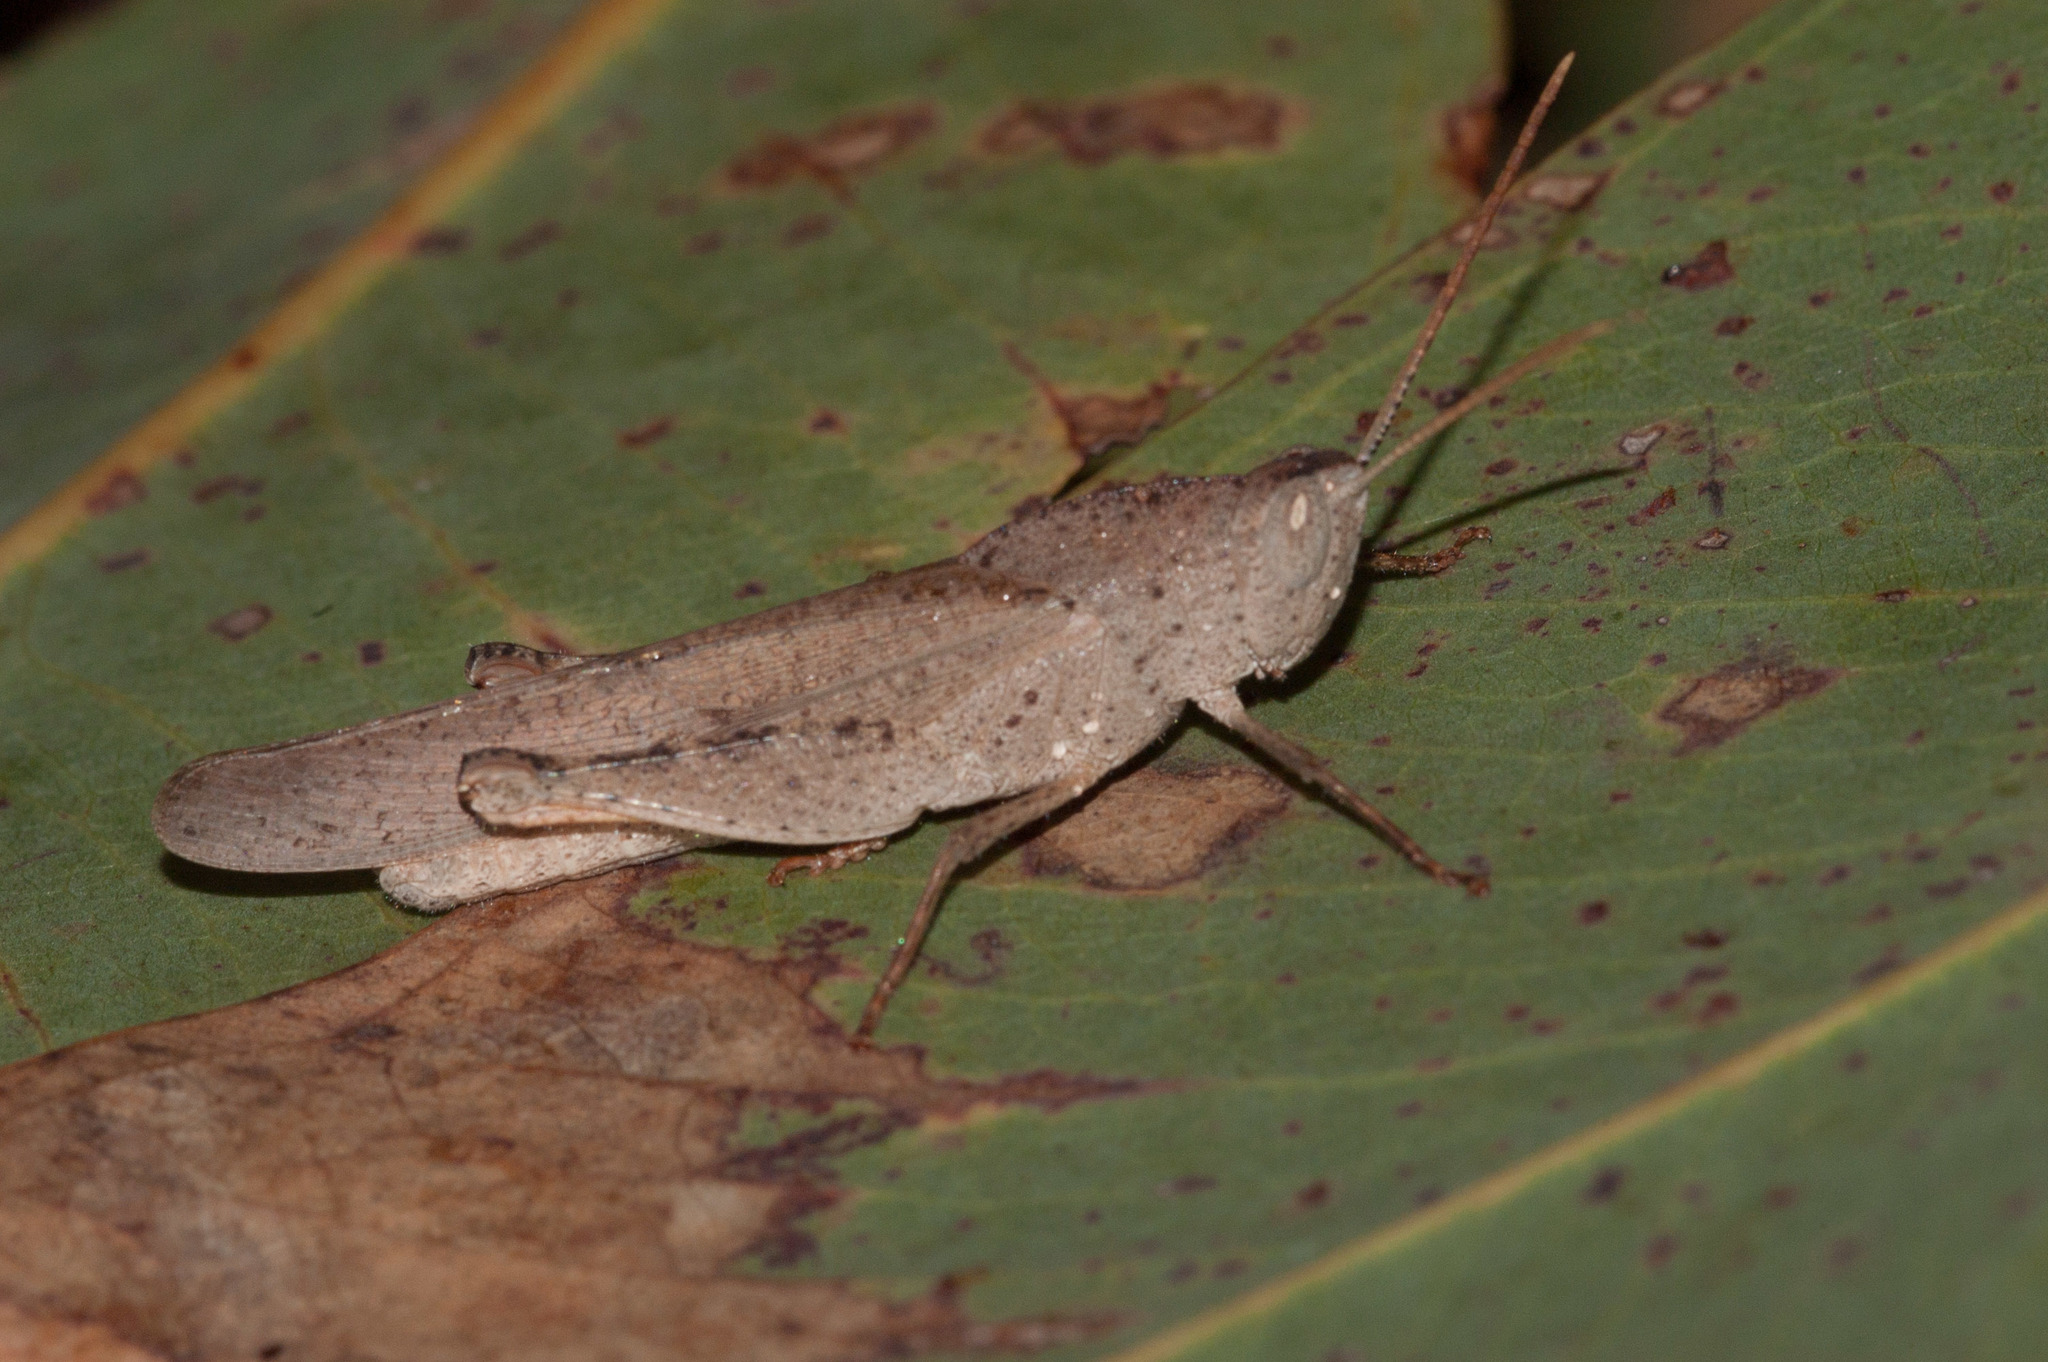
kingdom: Animalia
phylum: Arthropoda
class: Insecta
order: Orthoptera
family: Acrididae
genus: Goniaea
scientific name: Goniaea australasiae
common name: Gumleaf grasshopper
